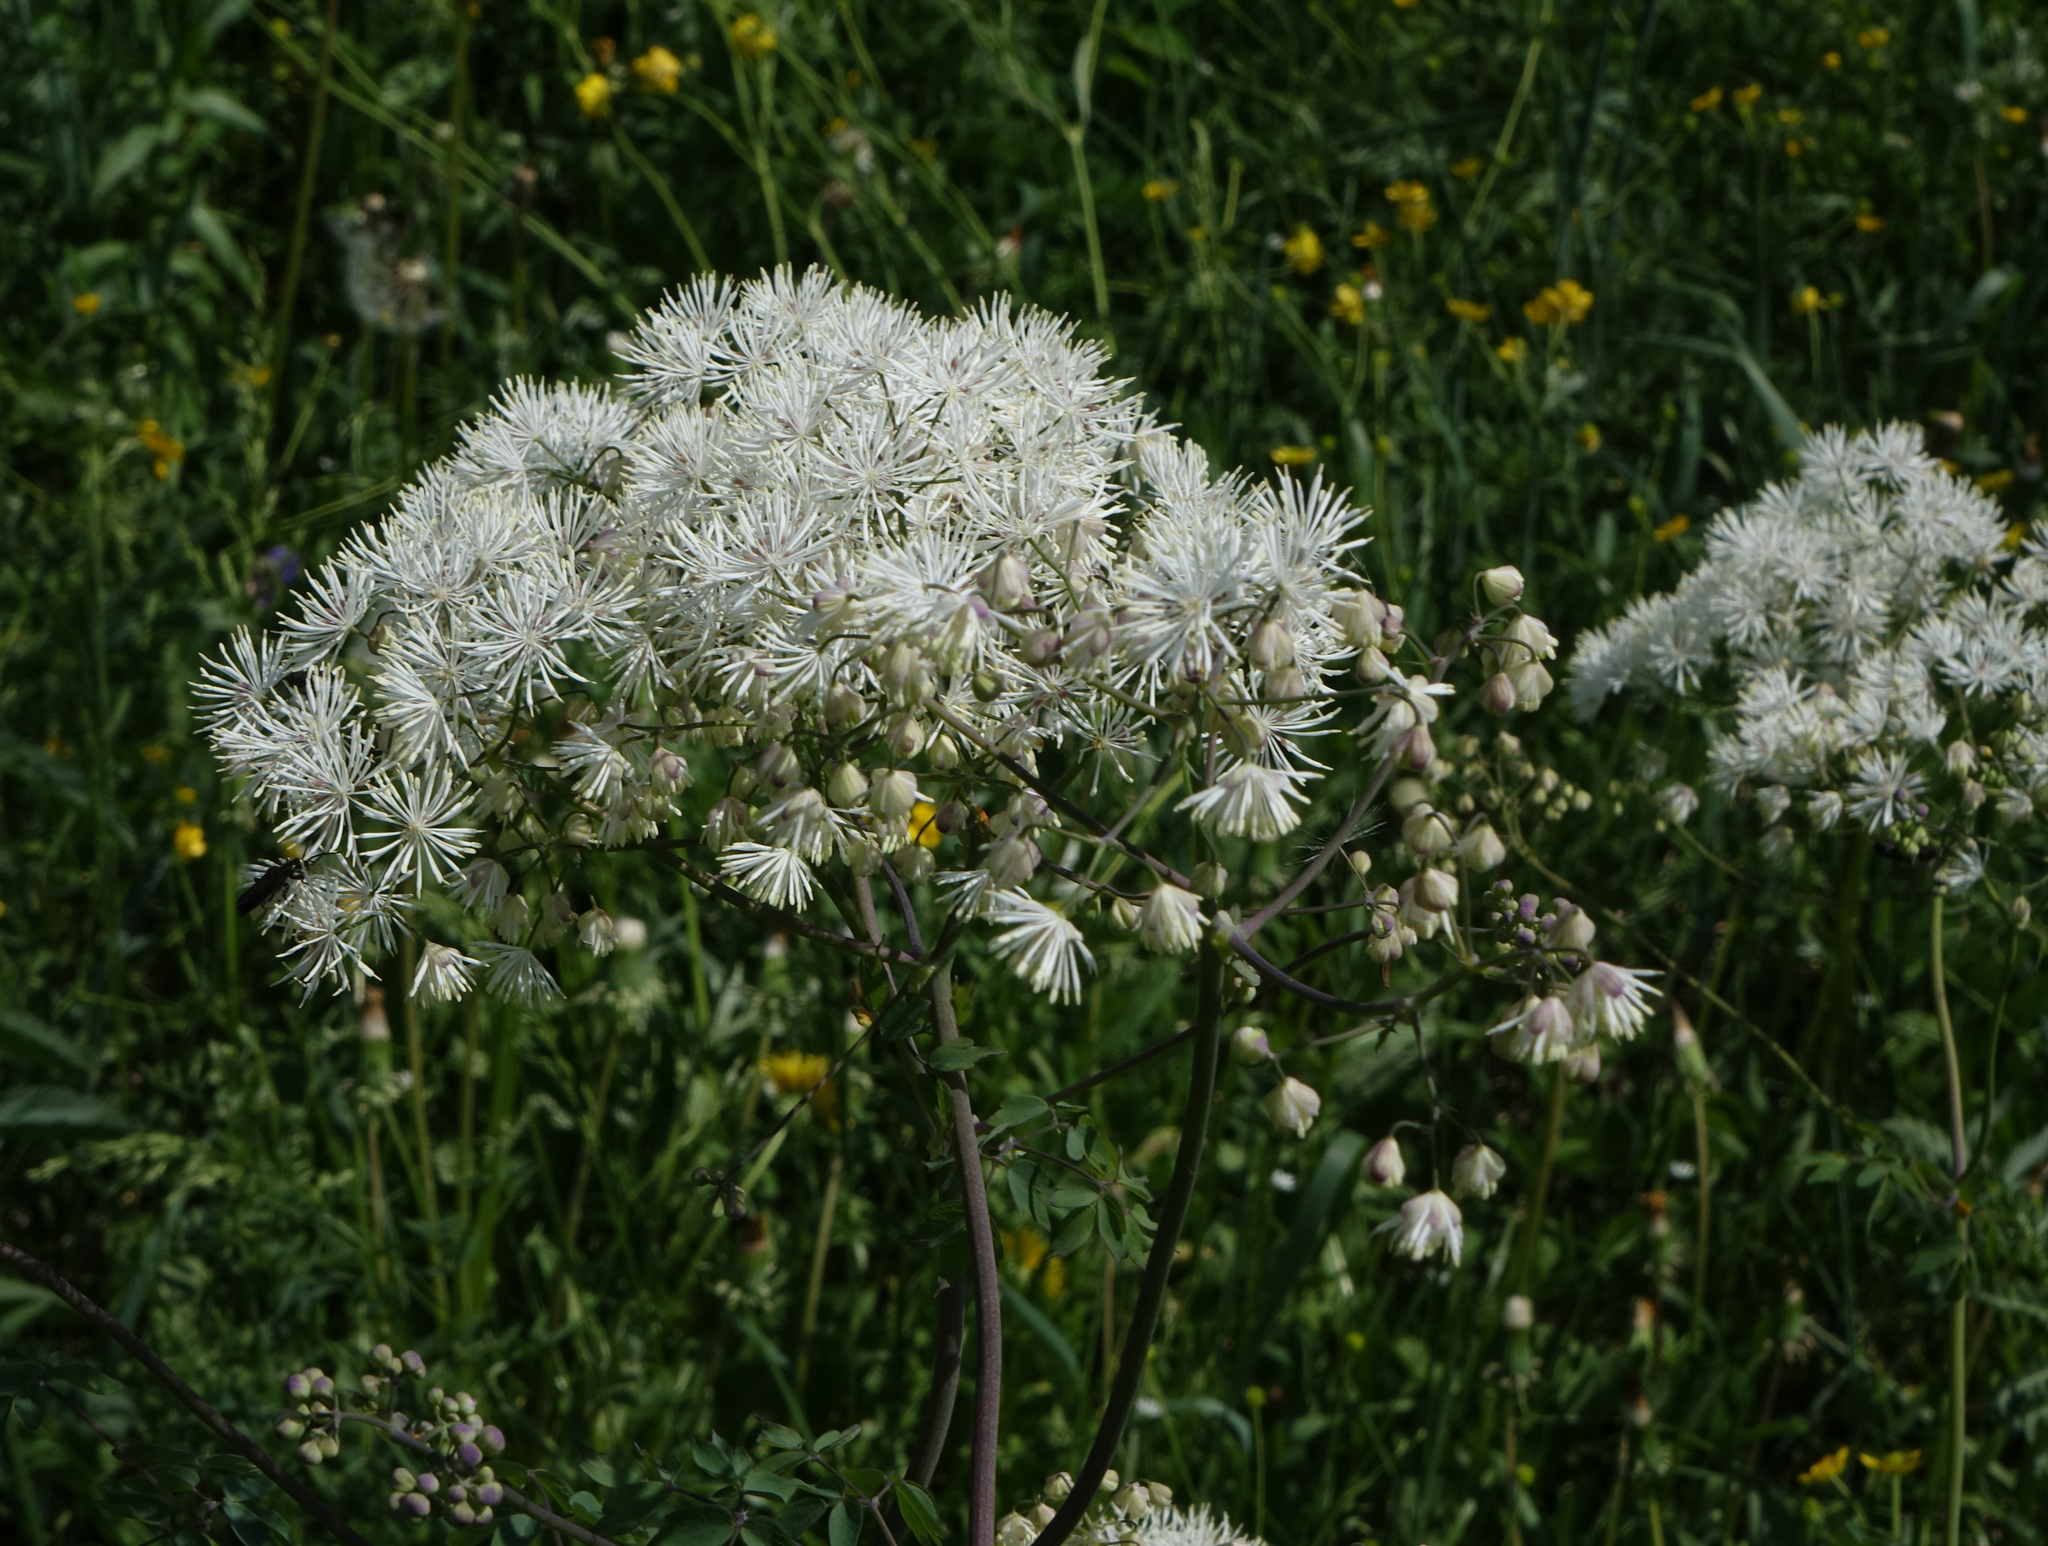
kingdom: Plantae
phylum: Tracheophyta
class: Magnoliopsida
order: Ranunculales
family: Ranunculaceae
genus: Thalictrum
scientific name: Thalictrum aquilegiifolium
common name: French meadow-rue
